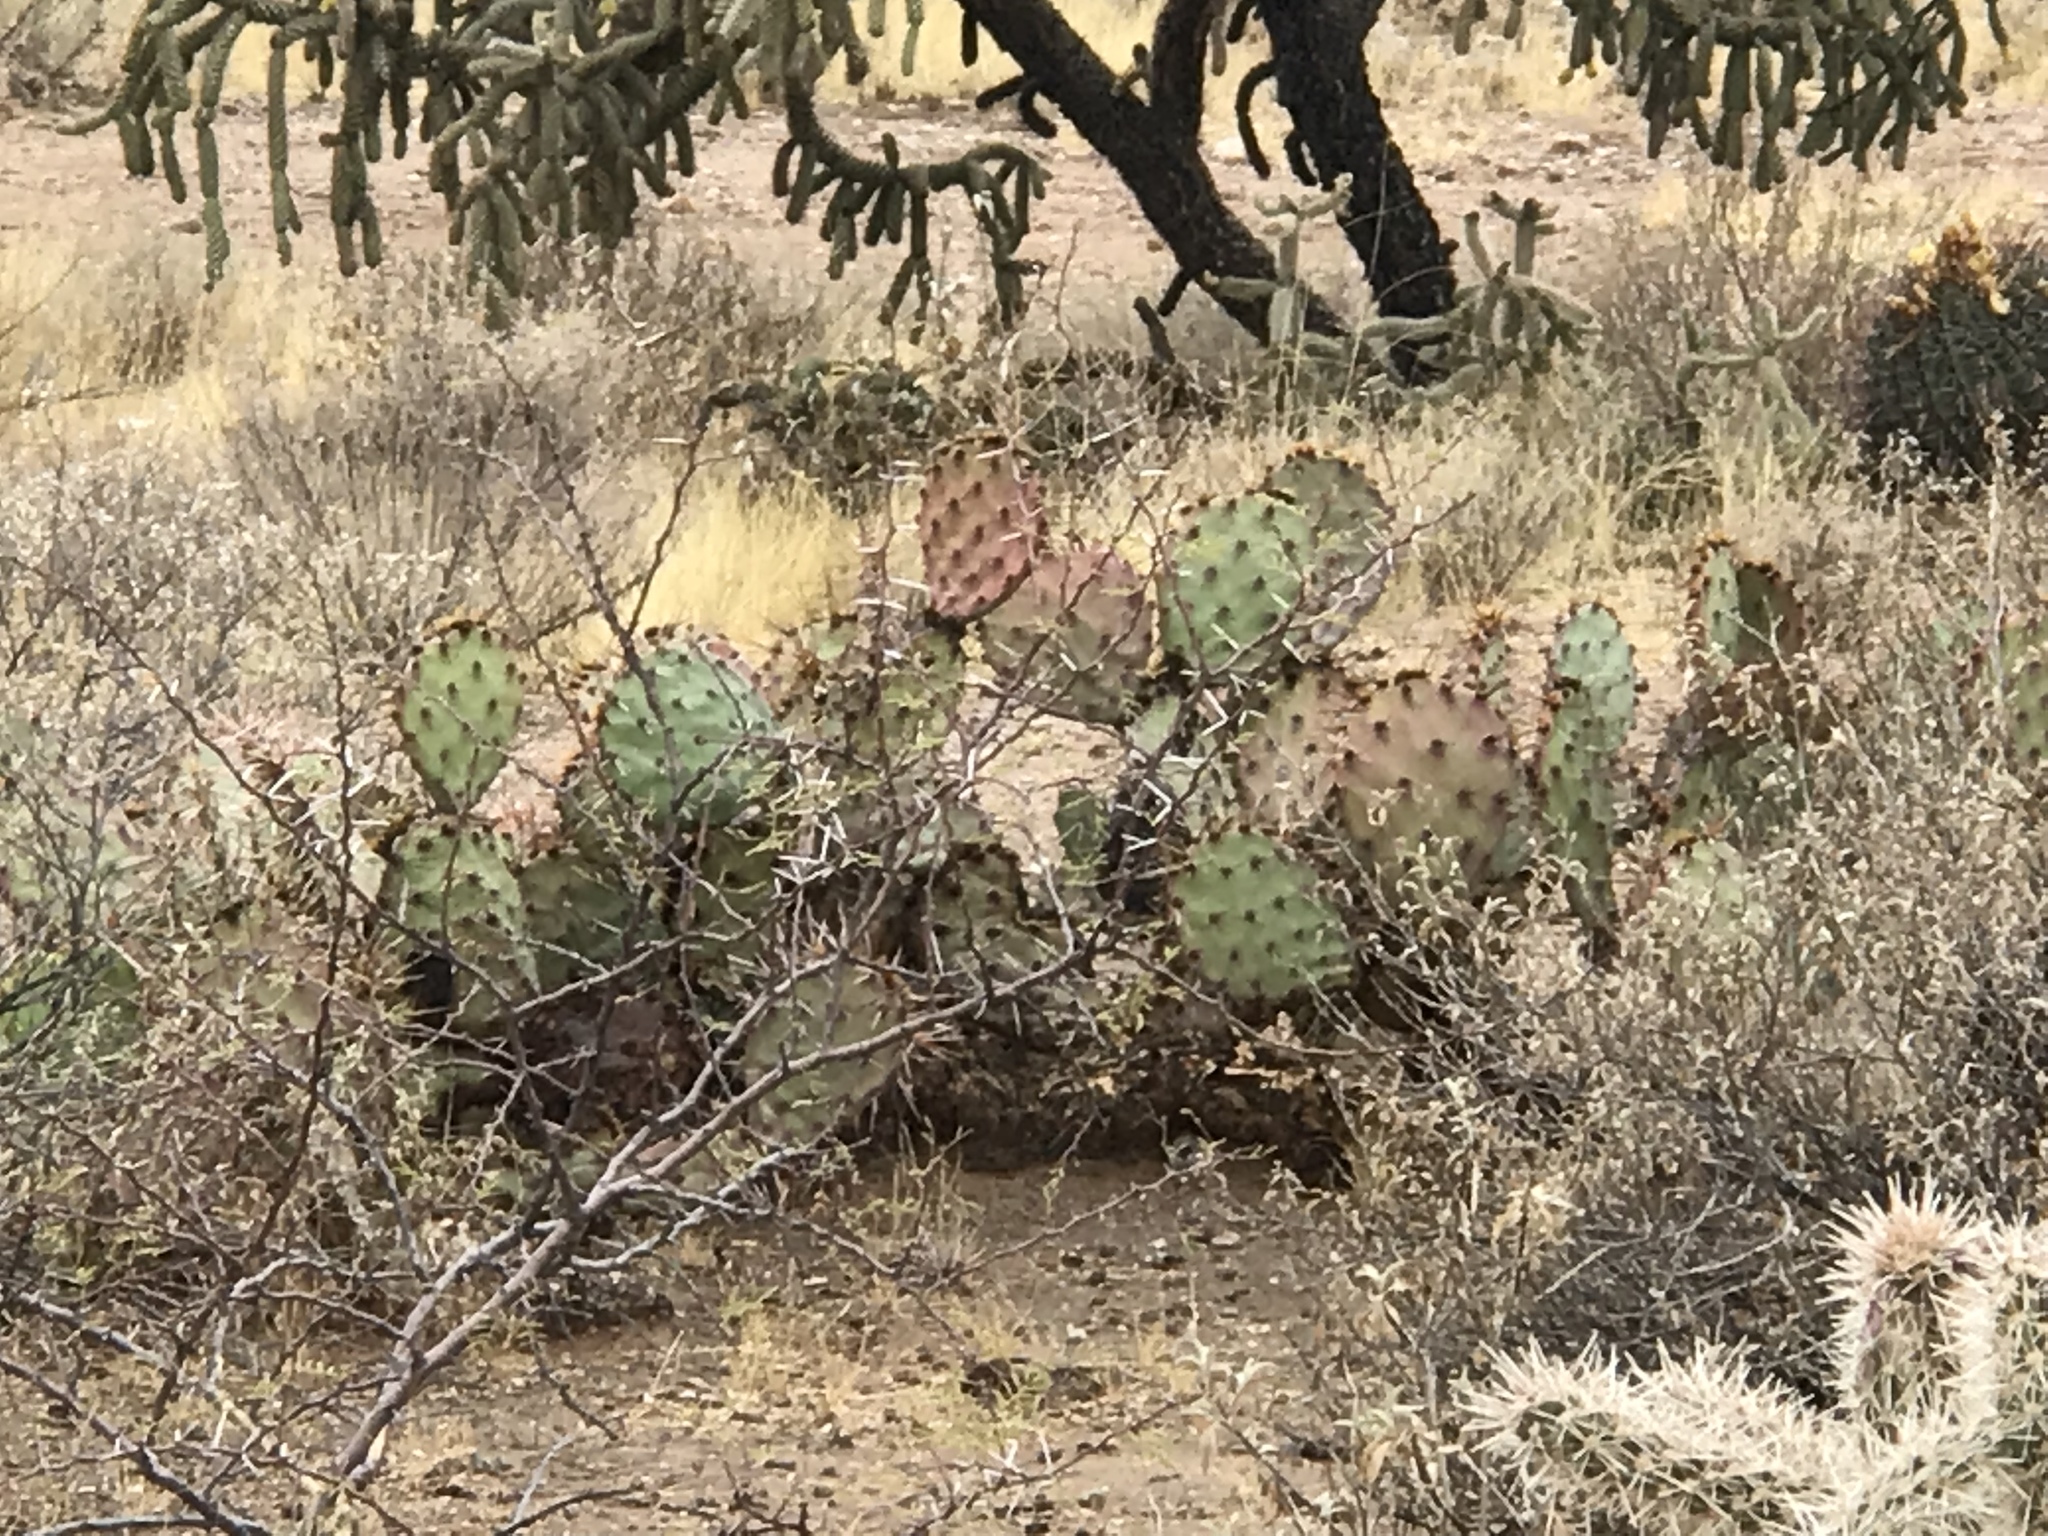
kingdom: Plantae
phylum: Tracheophyta
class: Magnoliopsida
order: Caryophyllales
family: Cactaceae
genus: Opuntia
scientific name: Opuntia phaeacantha
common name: New mexico prickly-pear
